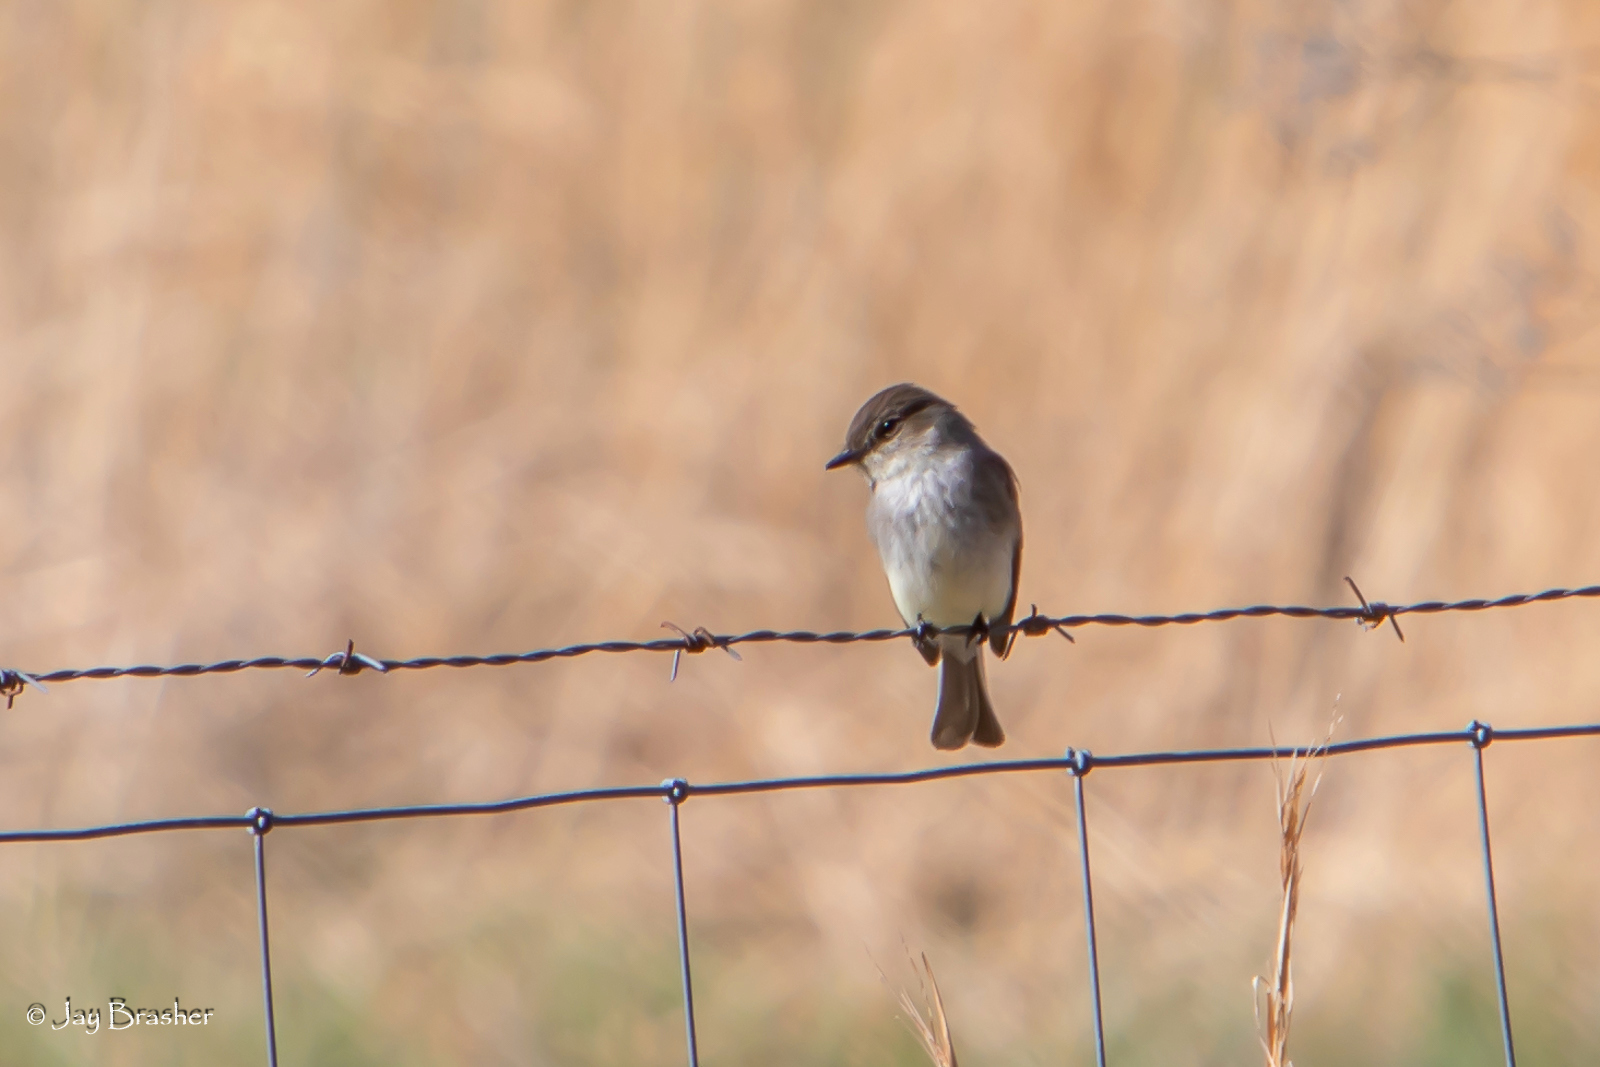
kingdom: Animalia
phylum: Chordata
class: Aves
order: Passeriformes
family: Tyrannidae
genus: Sayornis
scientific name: Sayornis phoebe
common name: Eastern phoebe
